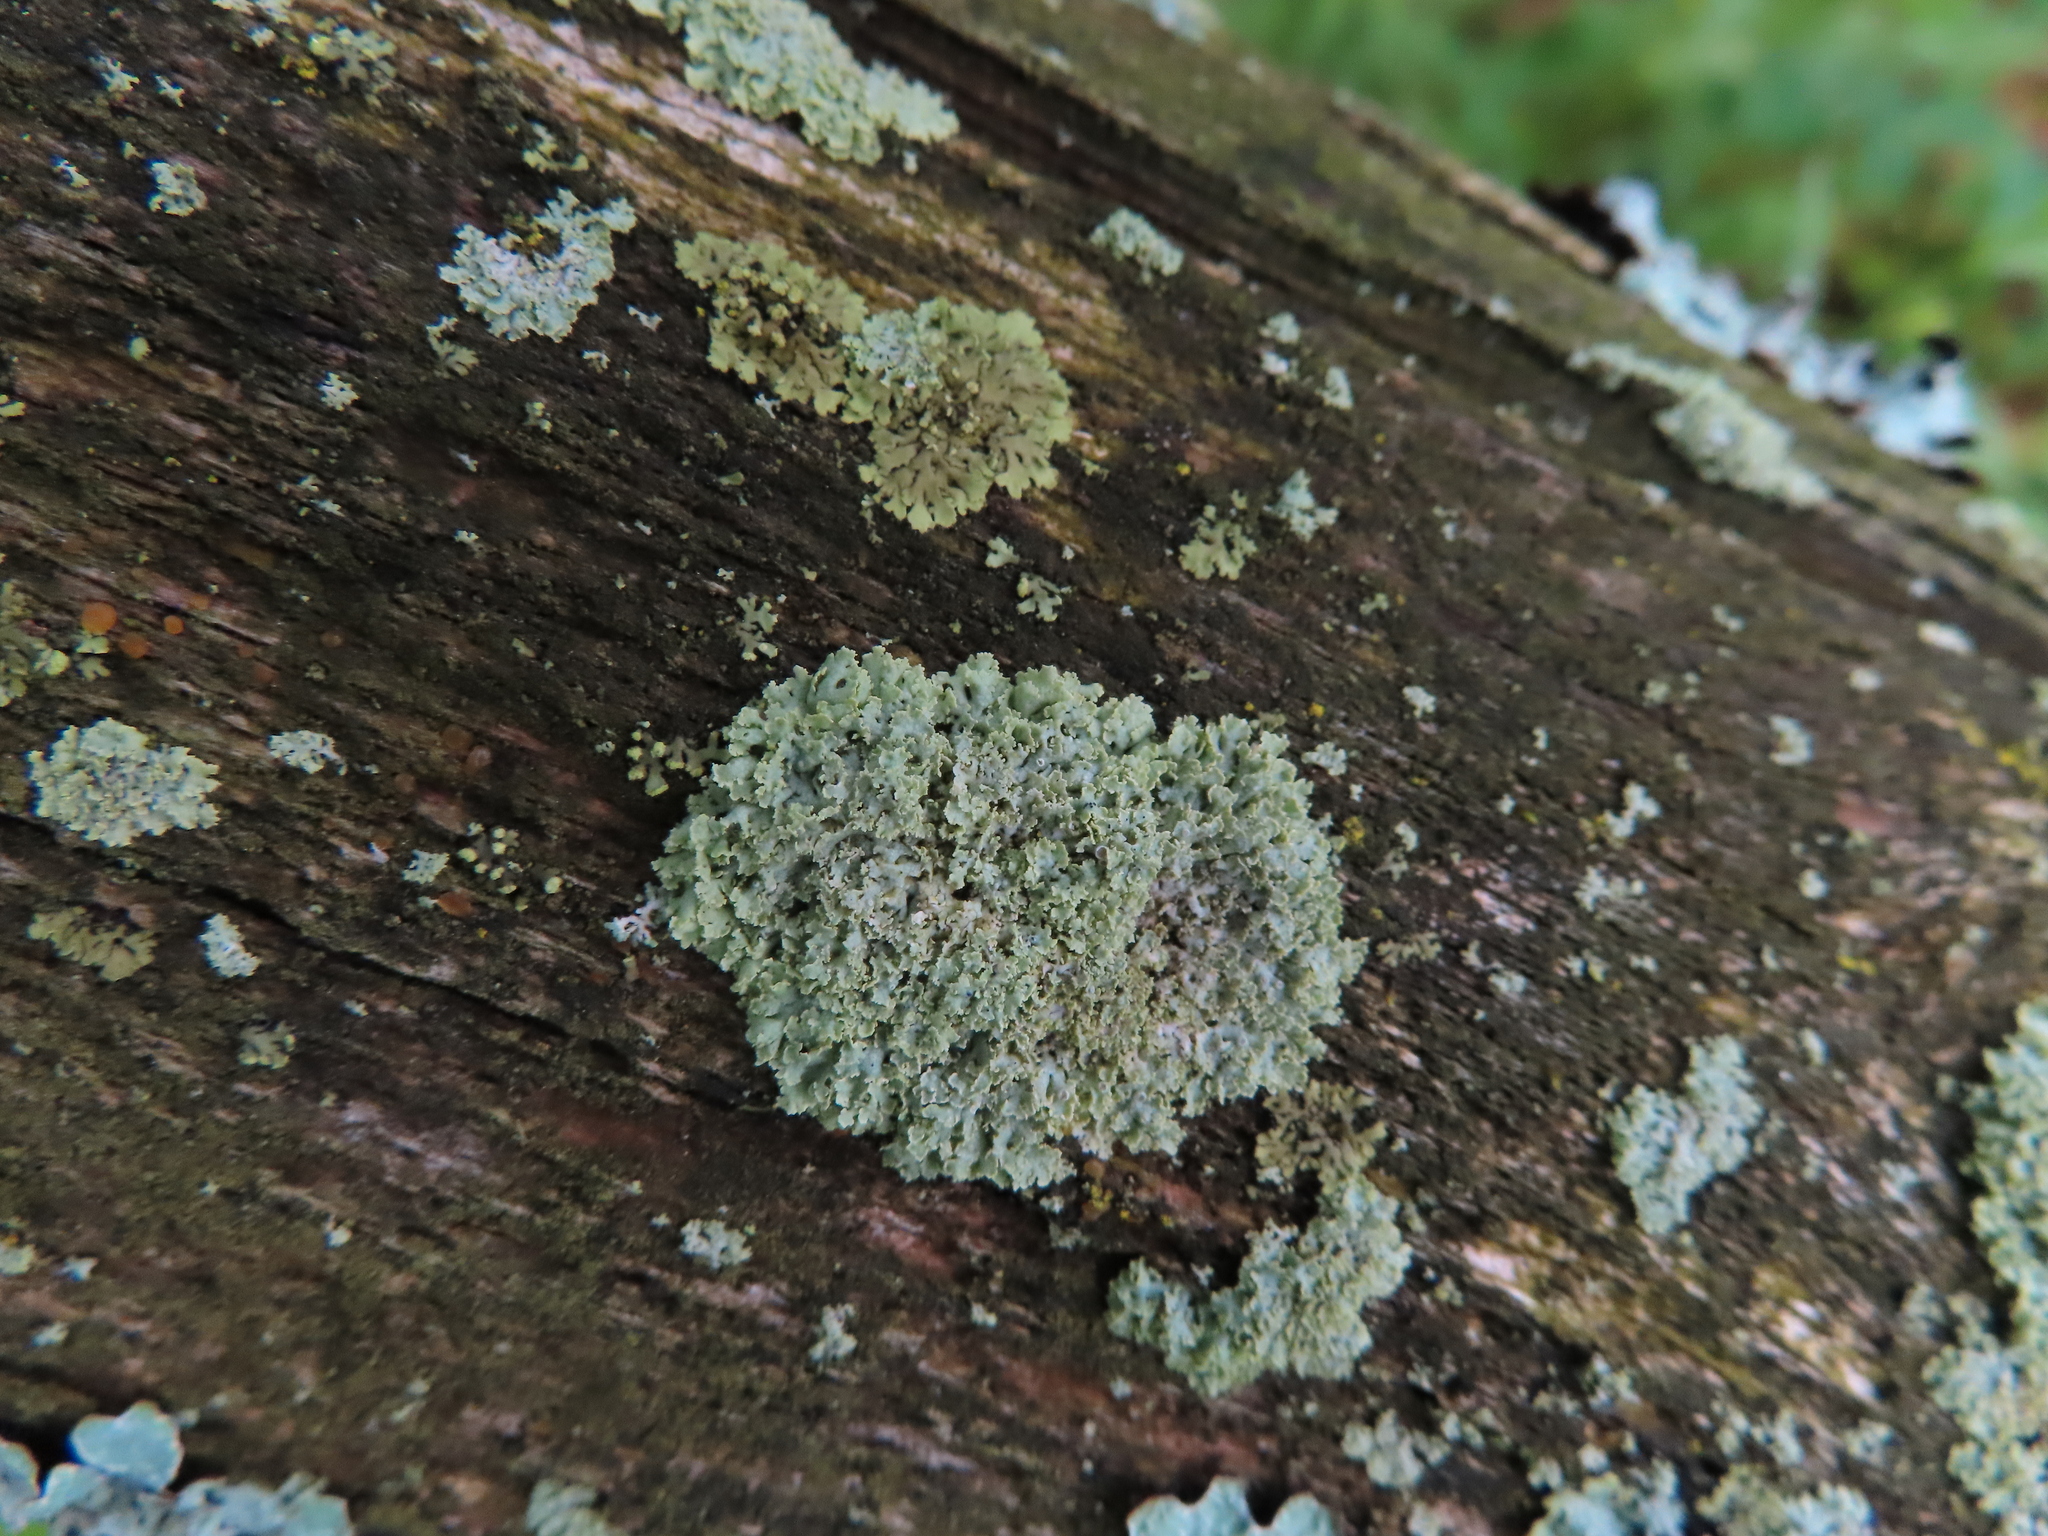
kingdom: Fungi
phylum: Ascomycota
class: Lecanoromycetes
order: Caliciales
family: Physciaceae
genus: Physcia
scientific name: Physcia millegrana
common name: Rosette lichen
